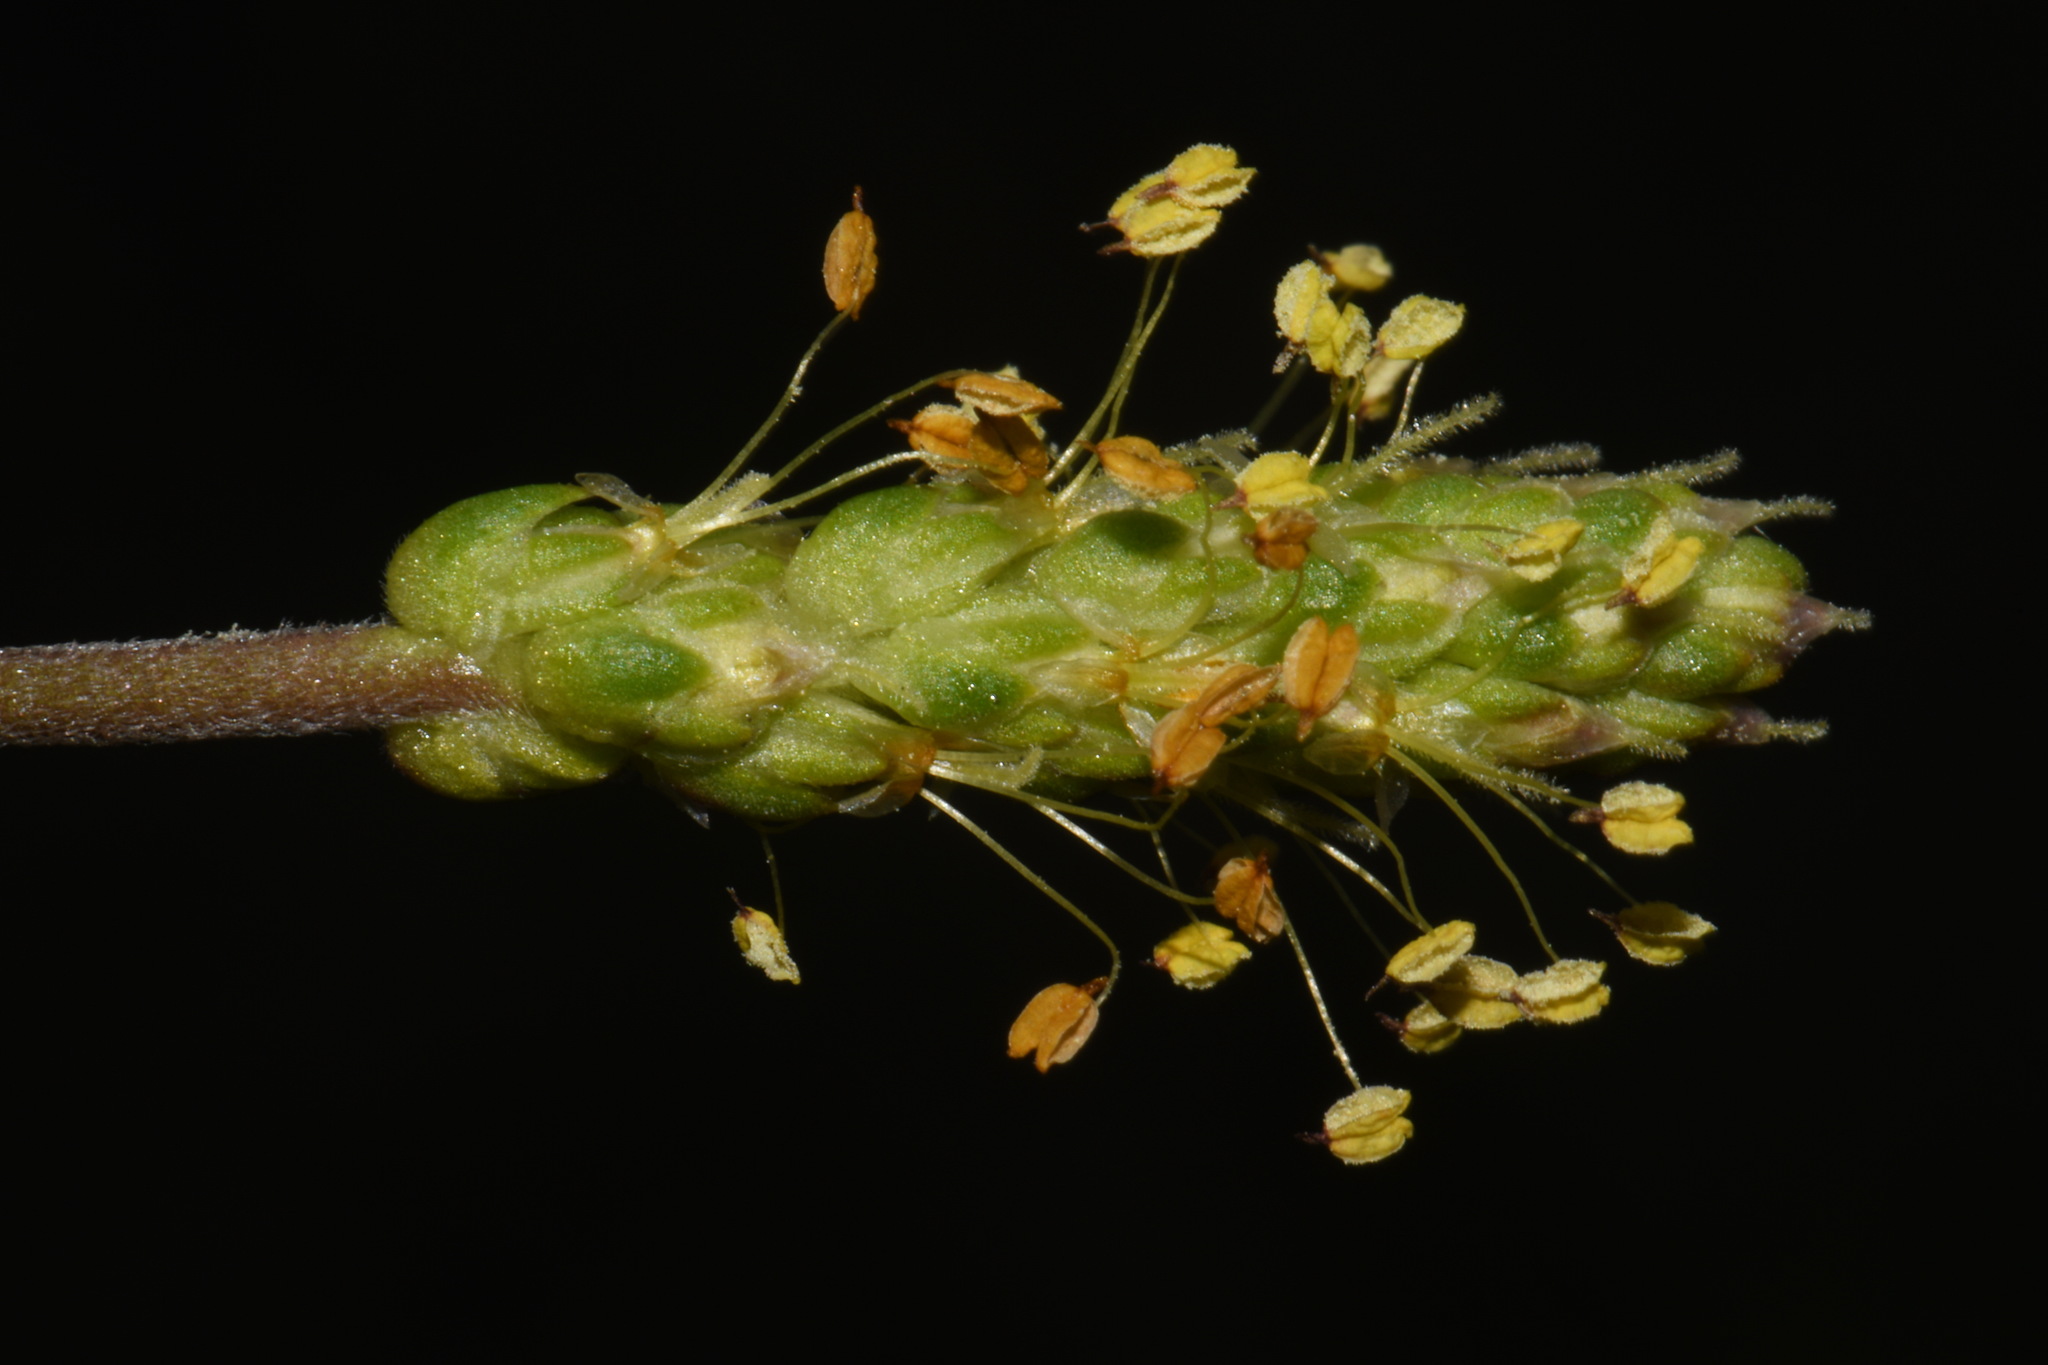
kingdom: Plantae
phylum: Tracheophyta
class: Magnoliopsida
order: Lamiales
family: Plantaginaceae
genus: Plantago
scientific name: Plantago maritima
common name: Sea plantain
